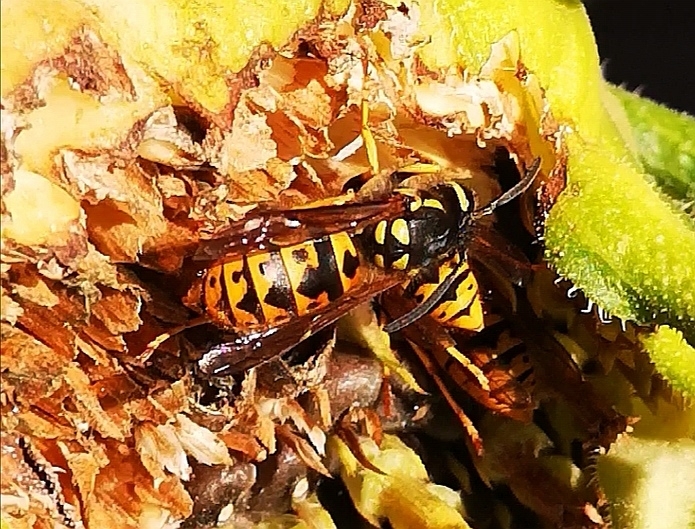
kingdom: Animalia
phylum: Arthropoda
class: Insecta
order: Hymenoptera
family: Vespidae
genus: Vespula
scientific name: Vespula germanica
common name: German wasp
